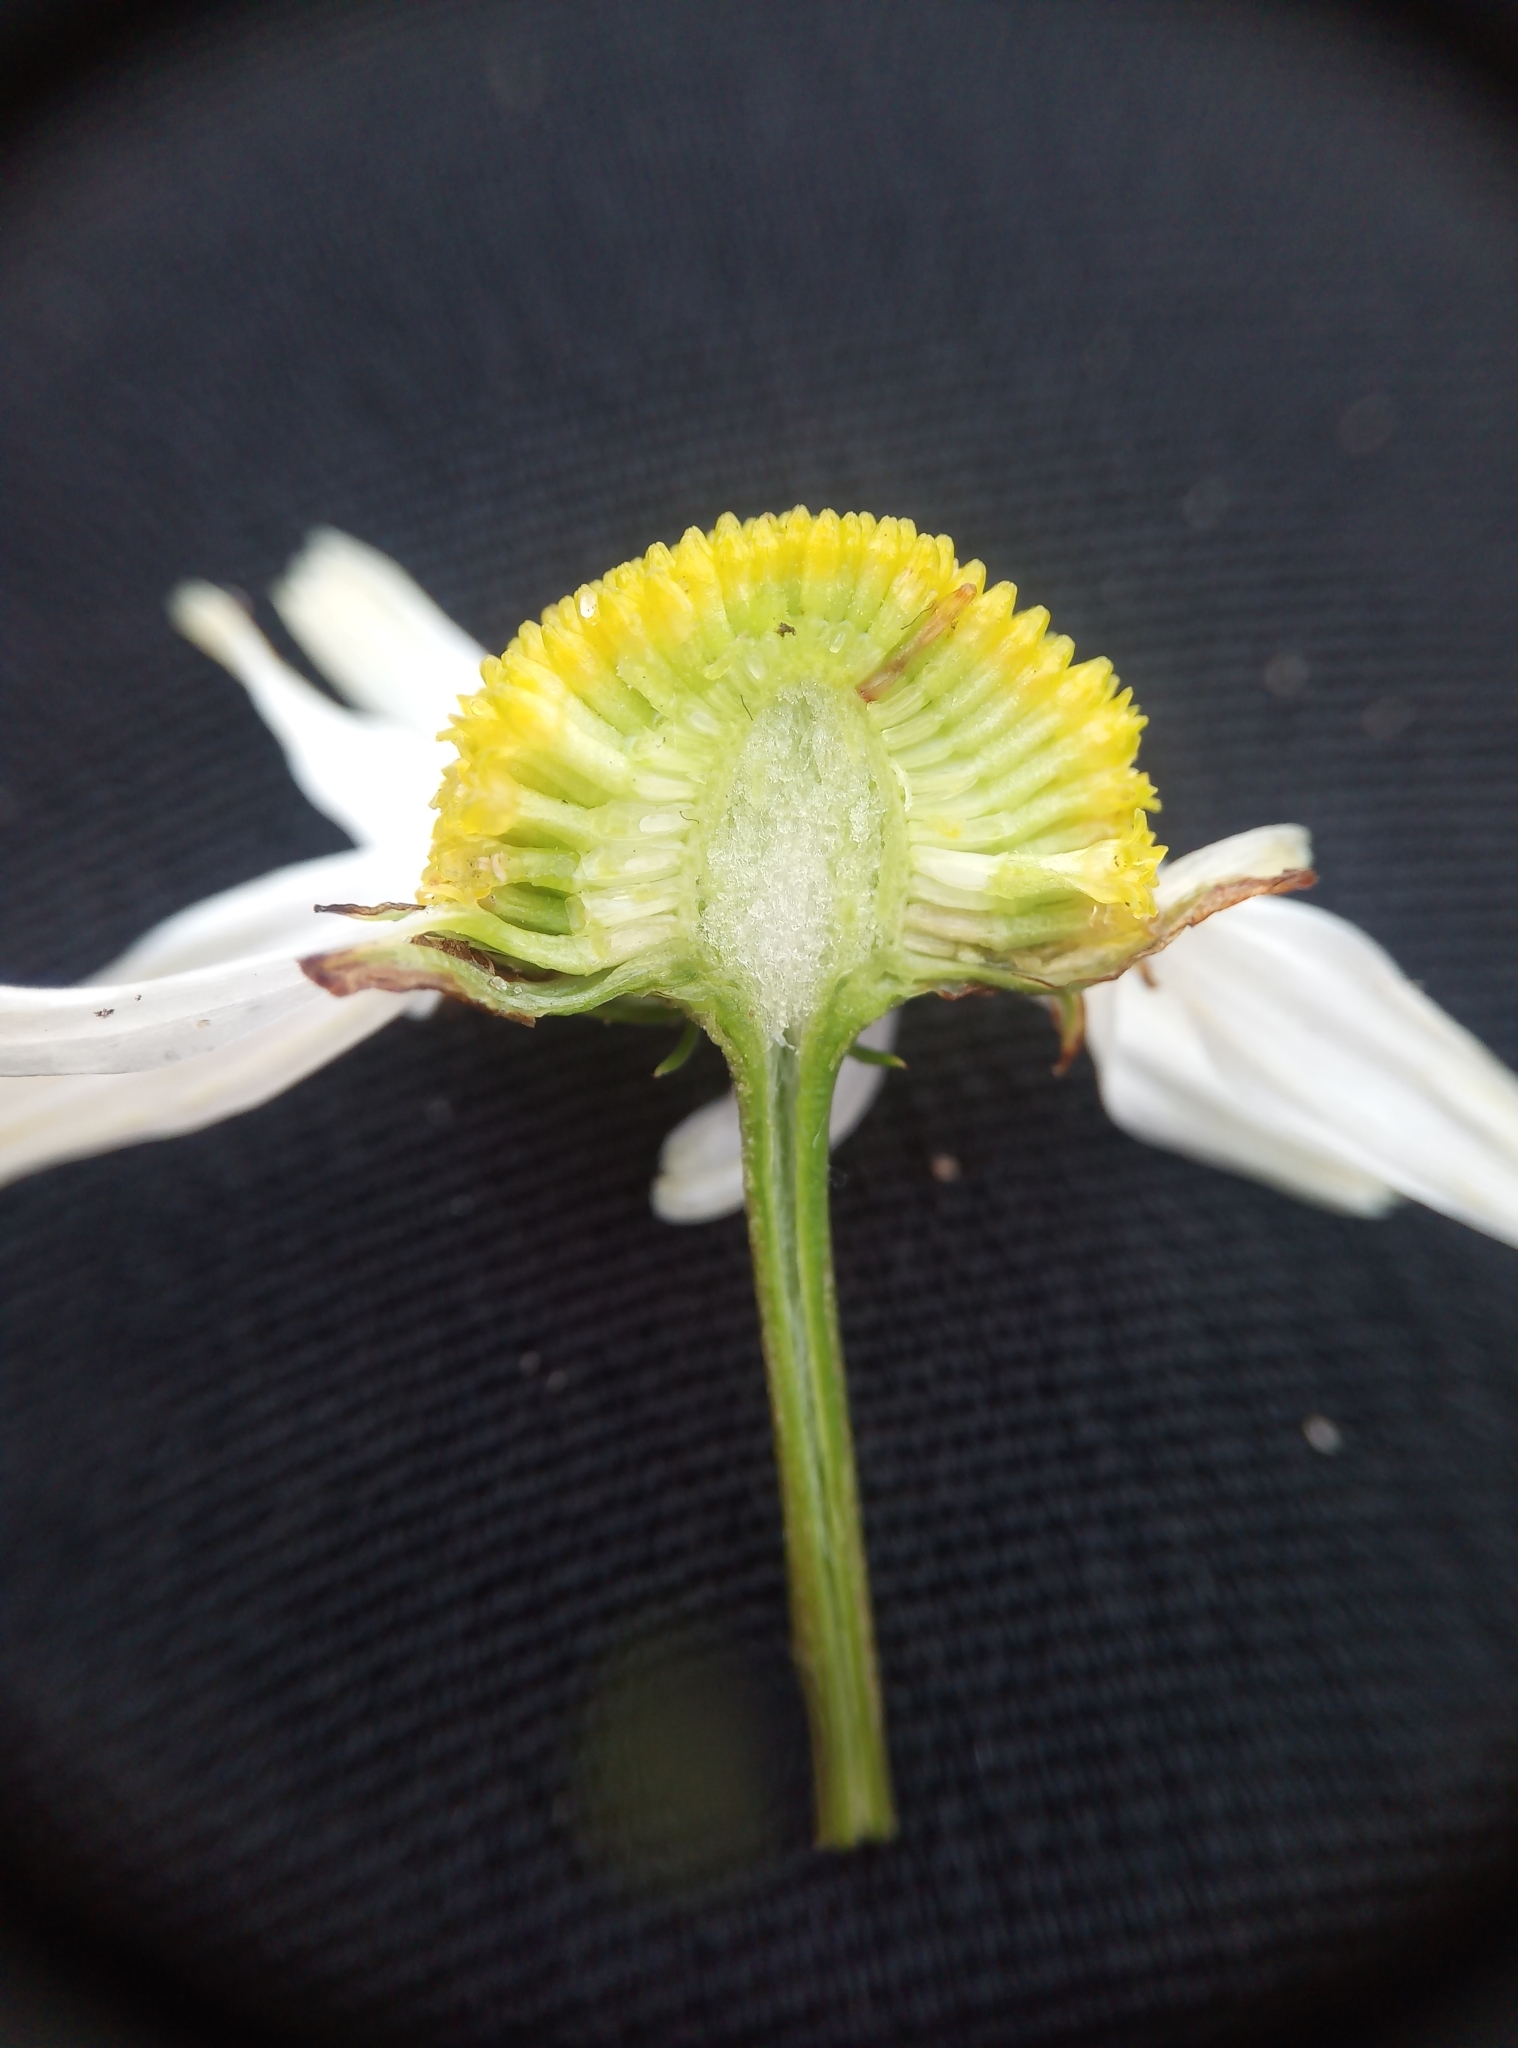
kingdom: Plantae
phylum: Tracheophyta
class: Magnoliopsida
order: Asterales
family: Asteraceae
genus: Tripleurospermum
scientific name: Tripleurospermum inodorum
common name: Scentless mayweed
